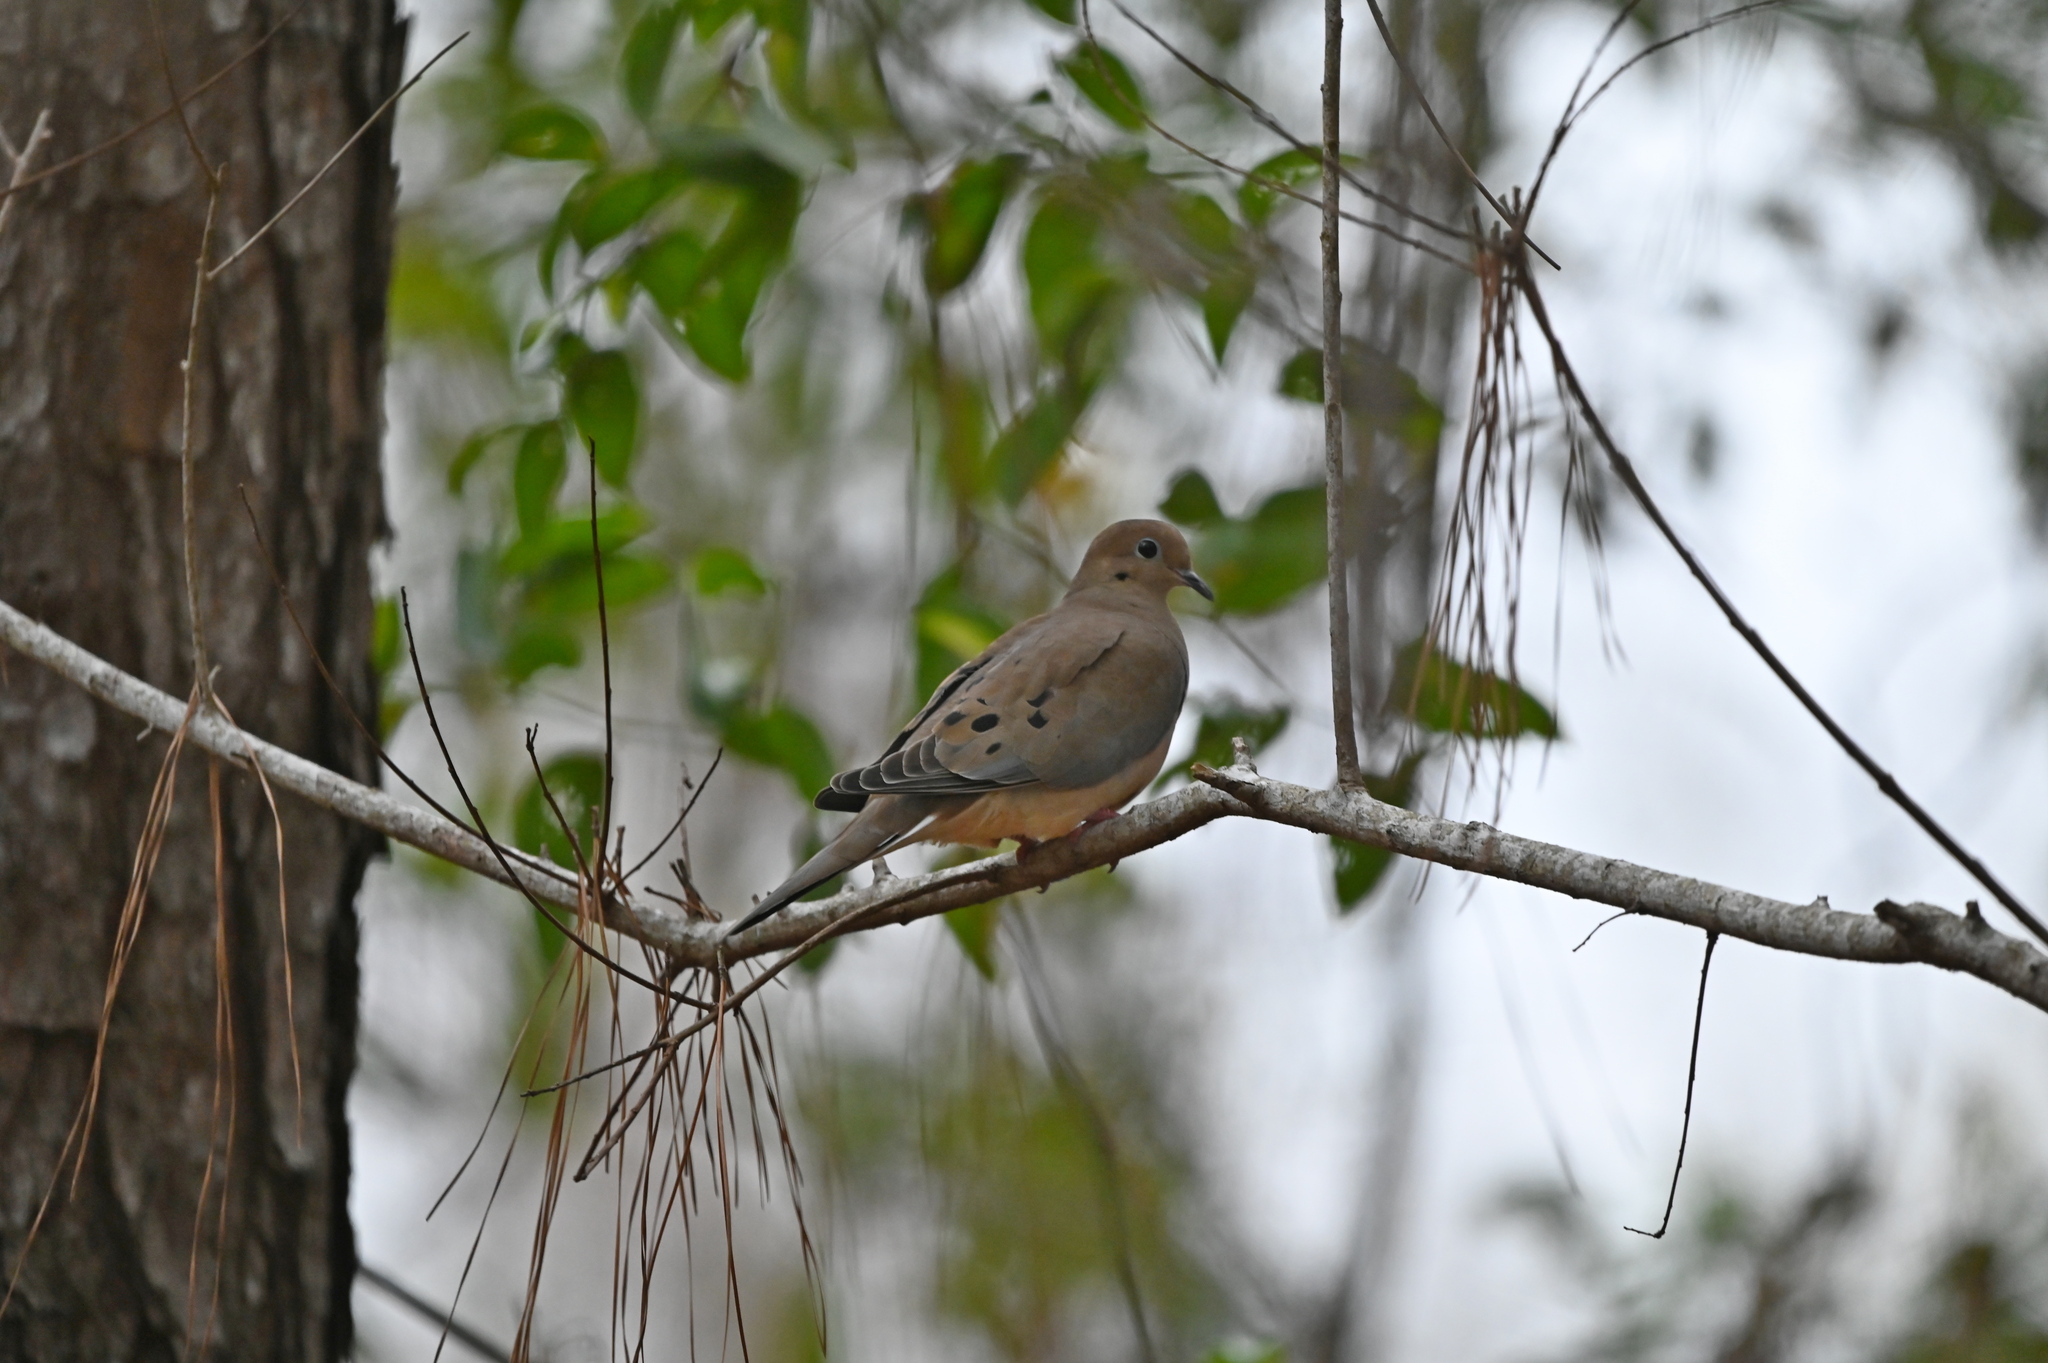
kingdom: Animalia
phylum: Chordata
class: Aves
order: Columbiformes
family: Columbidae
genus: Zenaida
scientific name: Zenaida macroura
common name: Mourning dove
